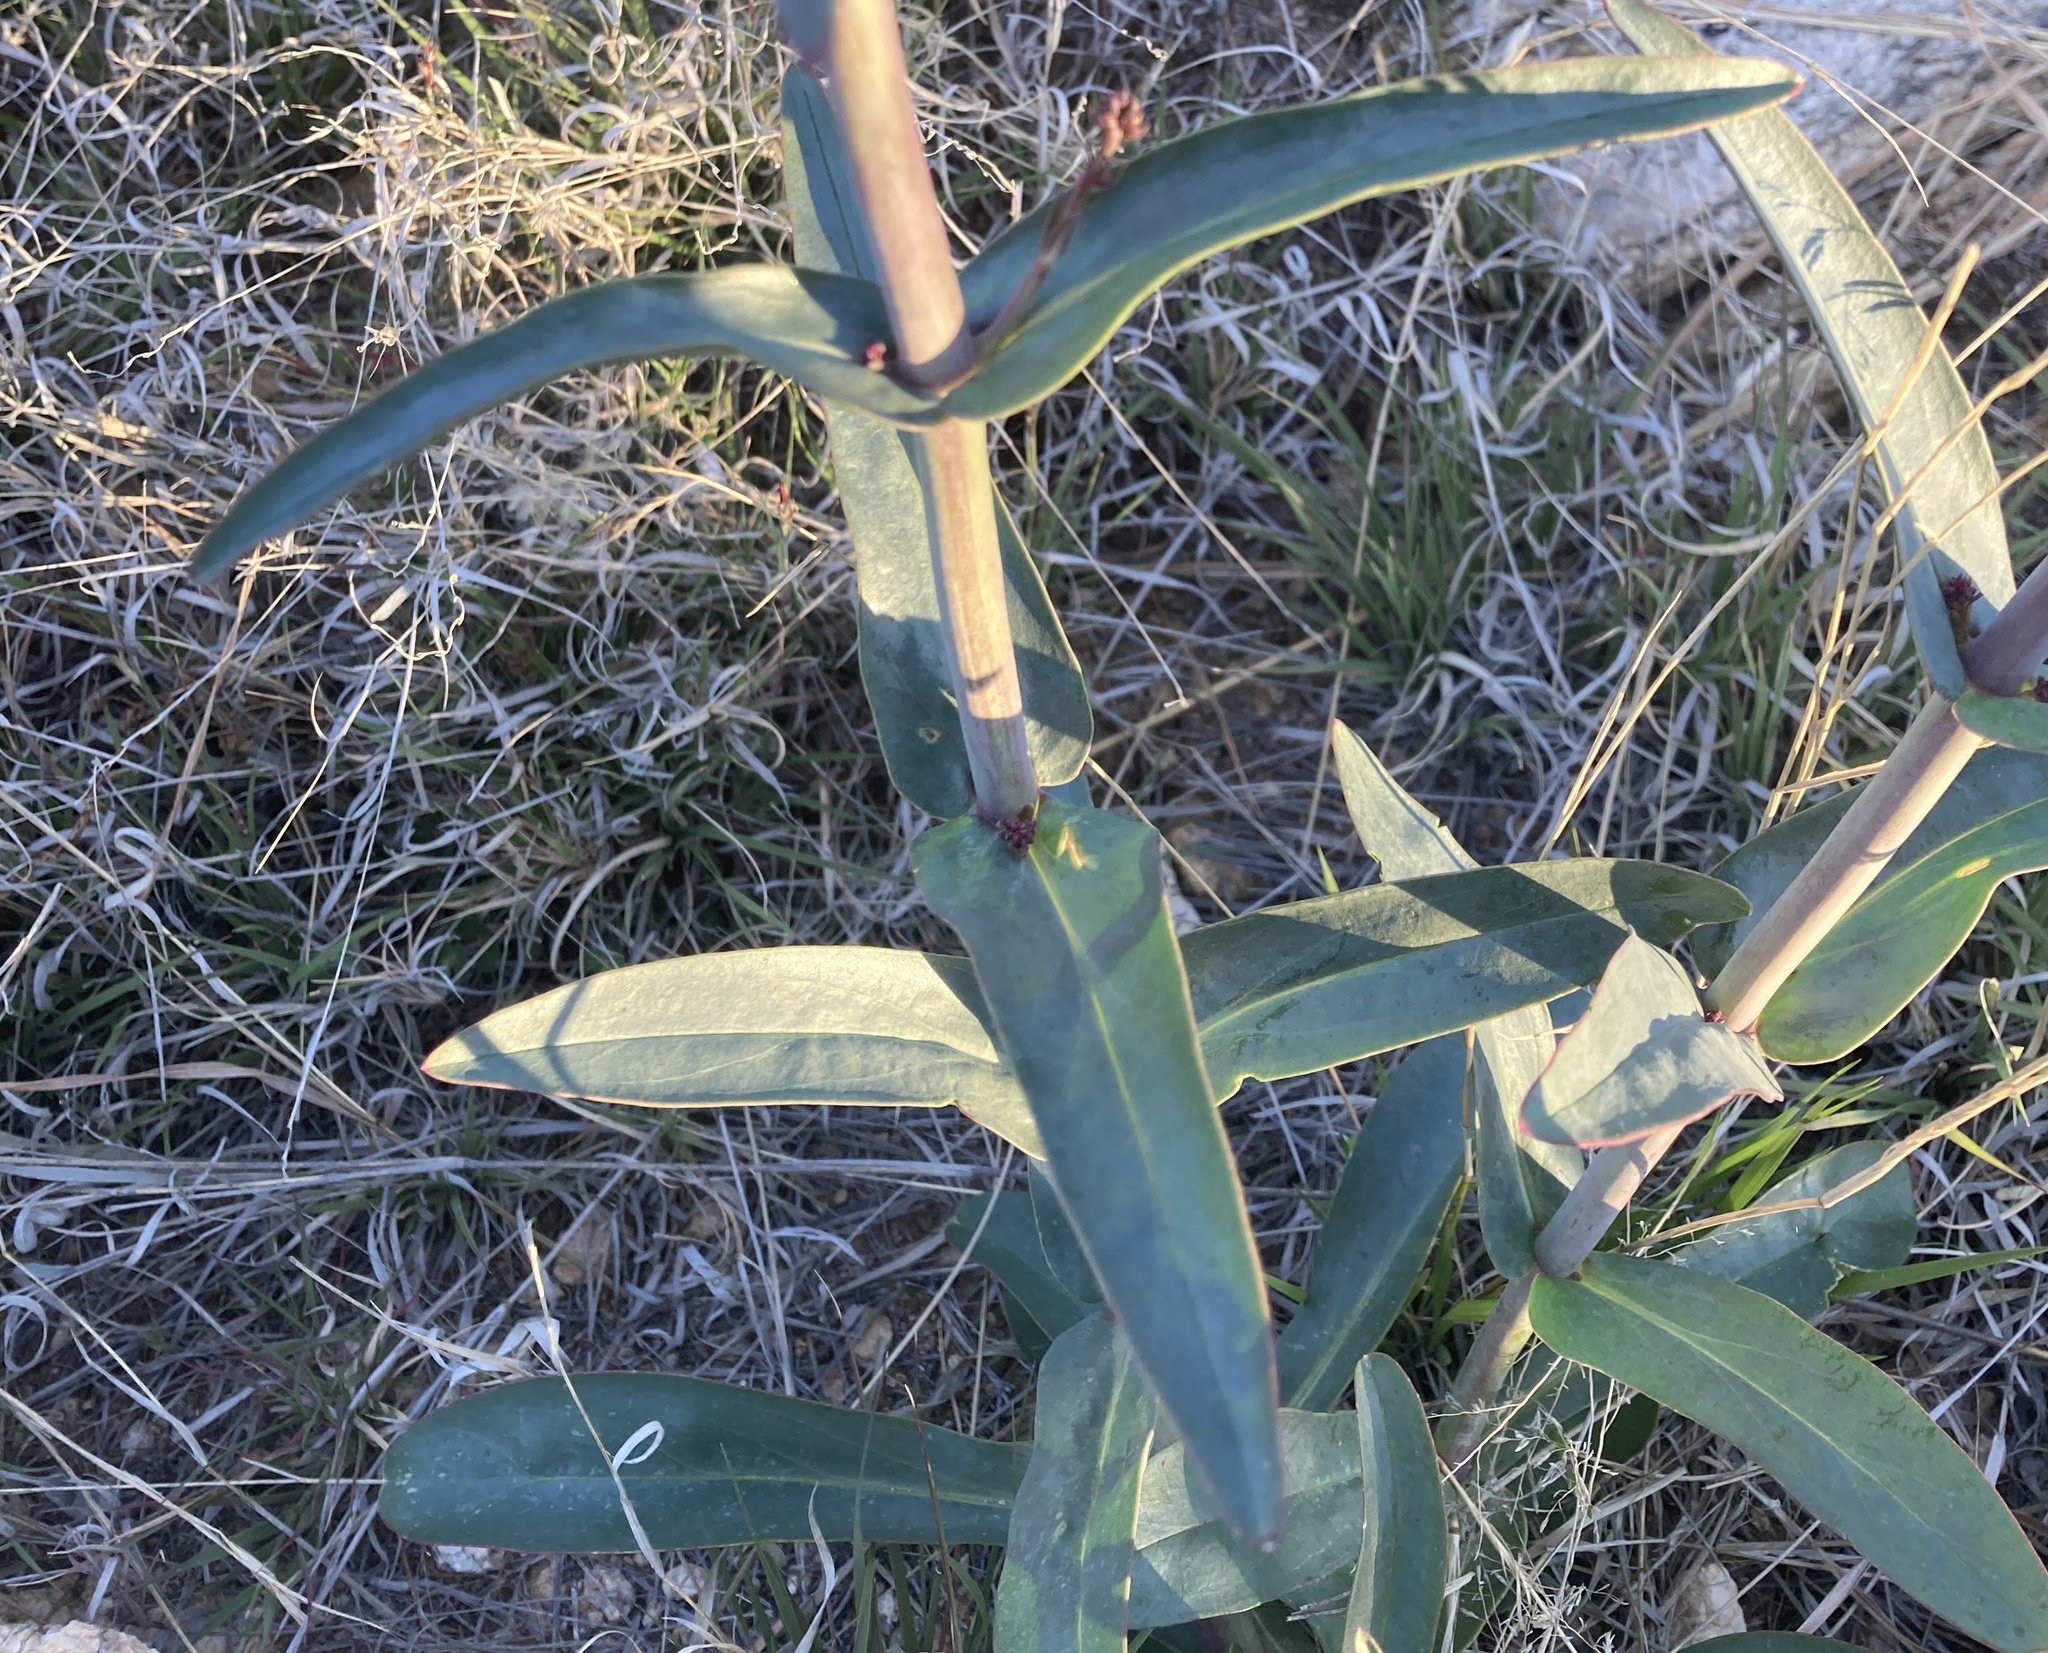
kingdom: Plantae
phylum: Tracheophyta
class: Magnoliopsida
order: Lamiales
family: Plantaginaceae
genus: Penstemon
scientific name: Penstemon parryi
